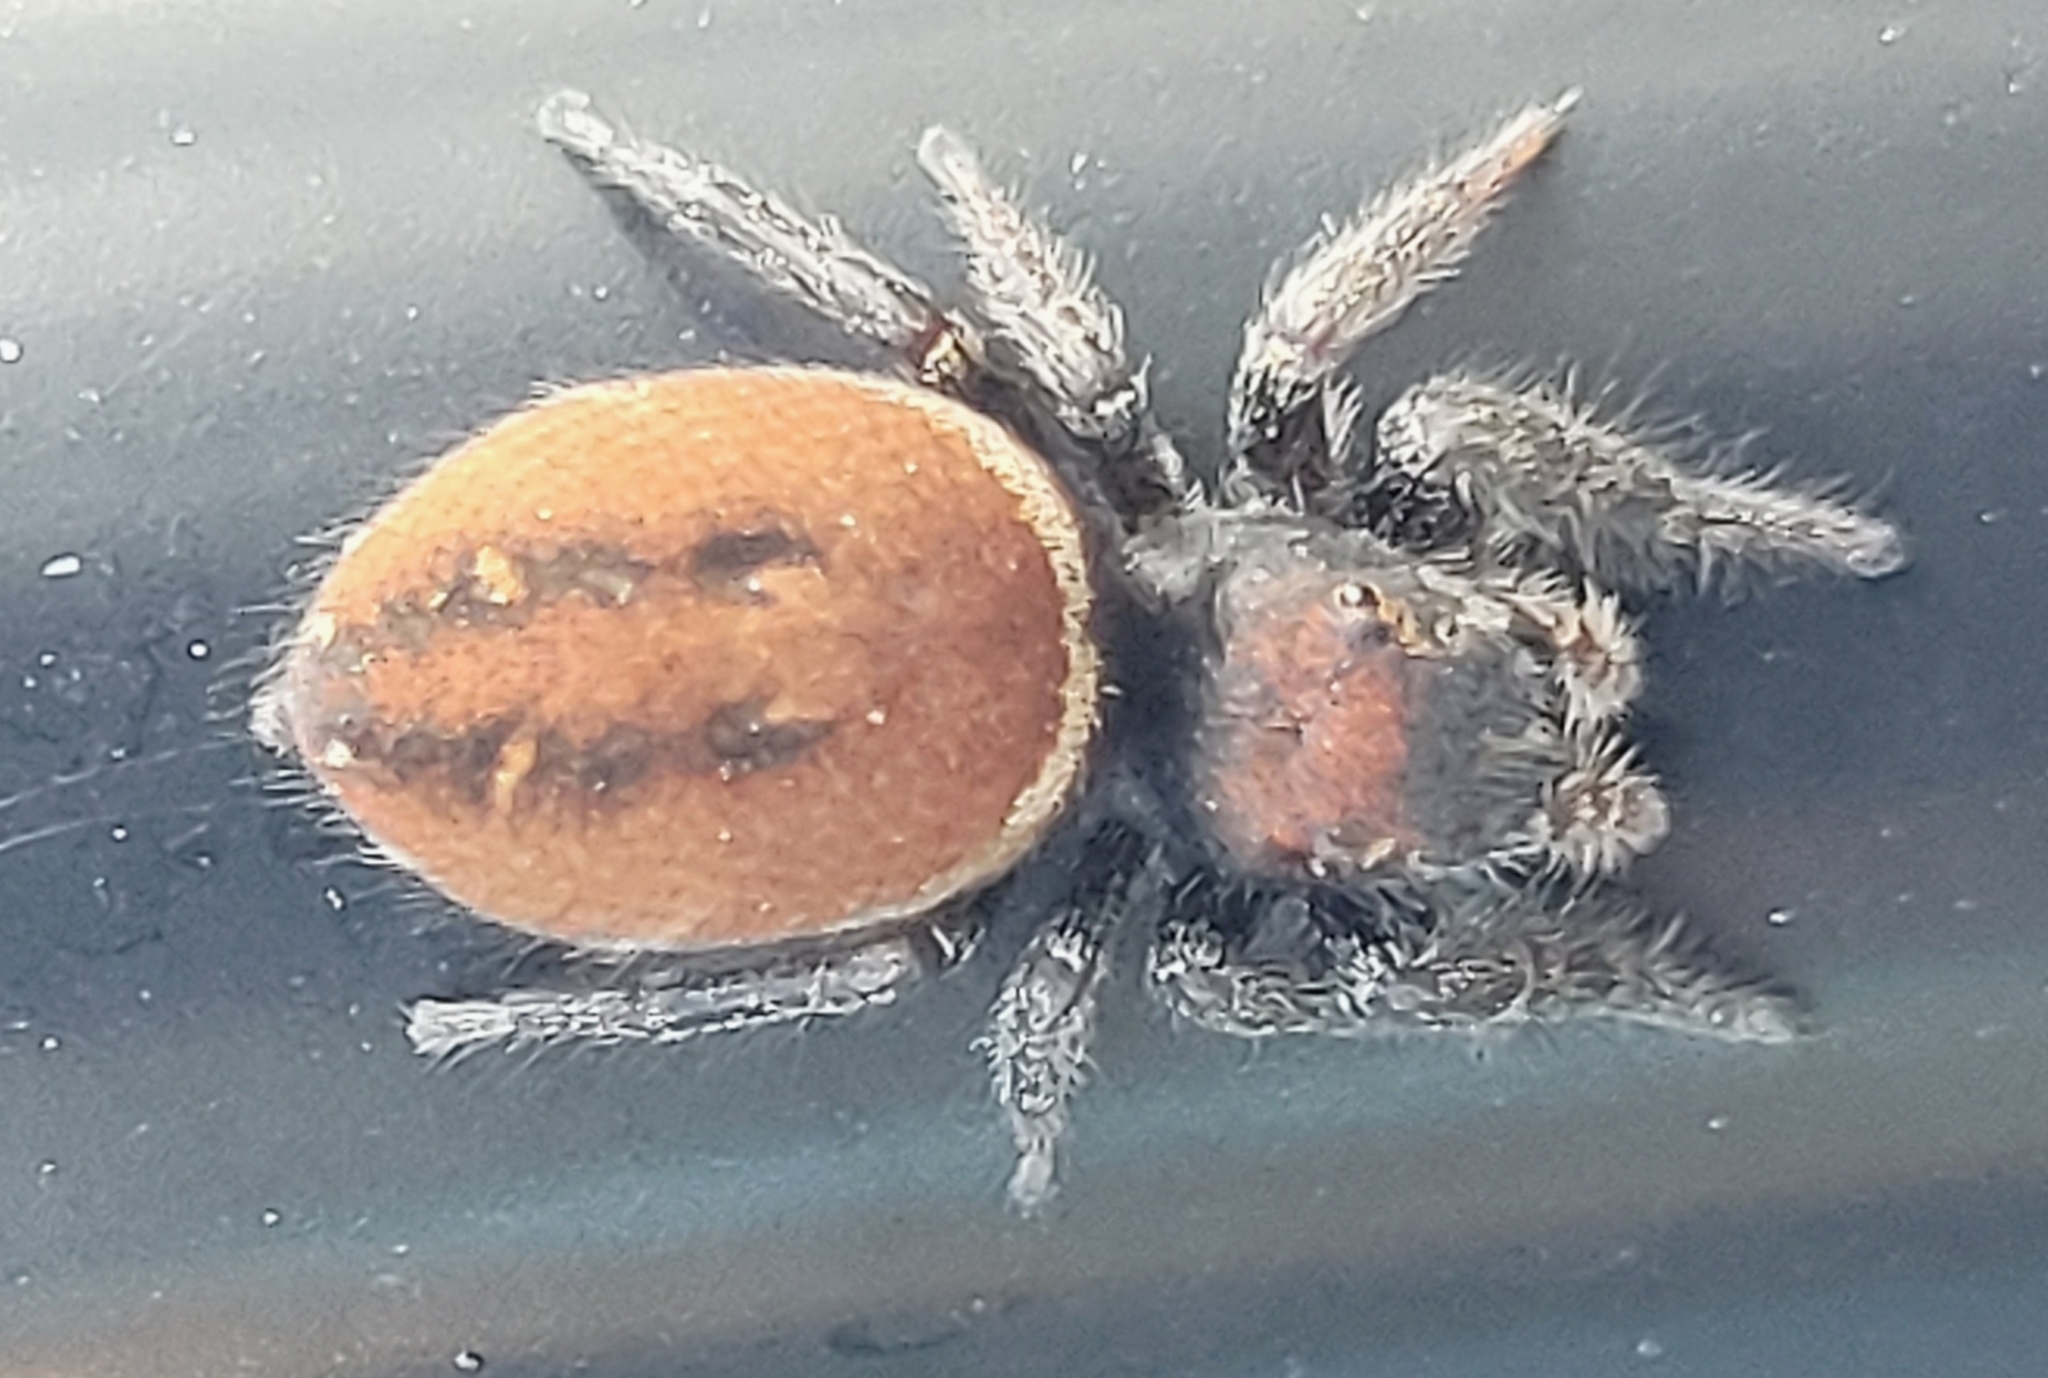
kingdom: Animalia
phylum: Arthropoda
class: Arachnida
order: Araneae
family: Salticidae
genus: Phidippus
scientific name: Phidippus whitmani
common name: Whitman's jumping spider
